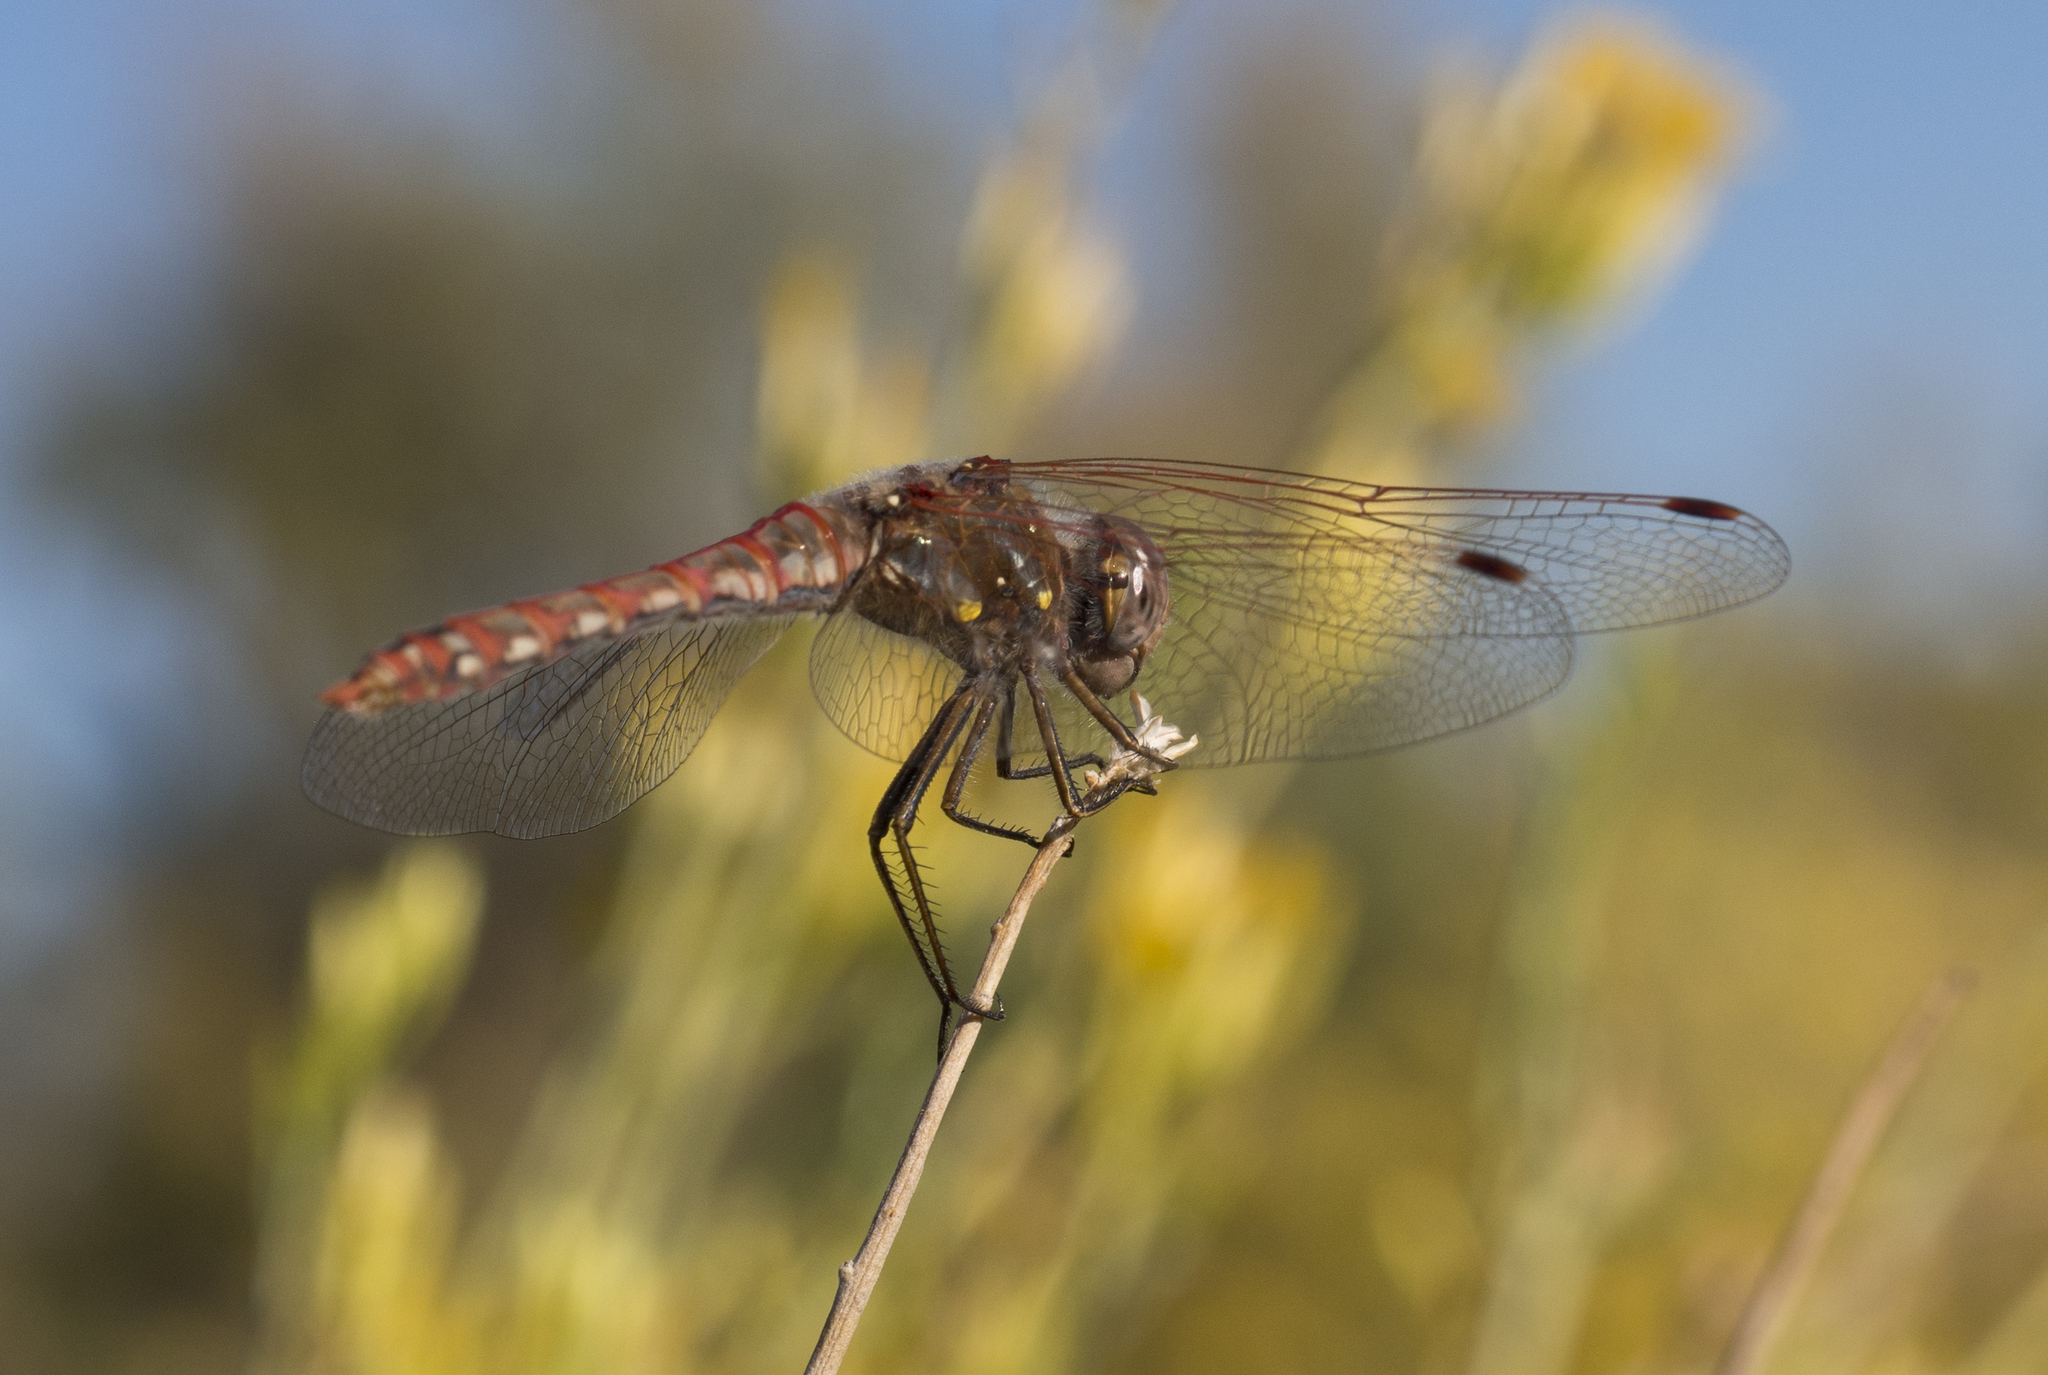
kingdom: Animalia
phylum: Arthropoda
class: Insecta
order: Odonata
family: Libellulidae
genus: Sympetrum
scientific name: Sympetrum corruptum
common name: Variegated meadowhawk
